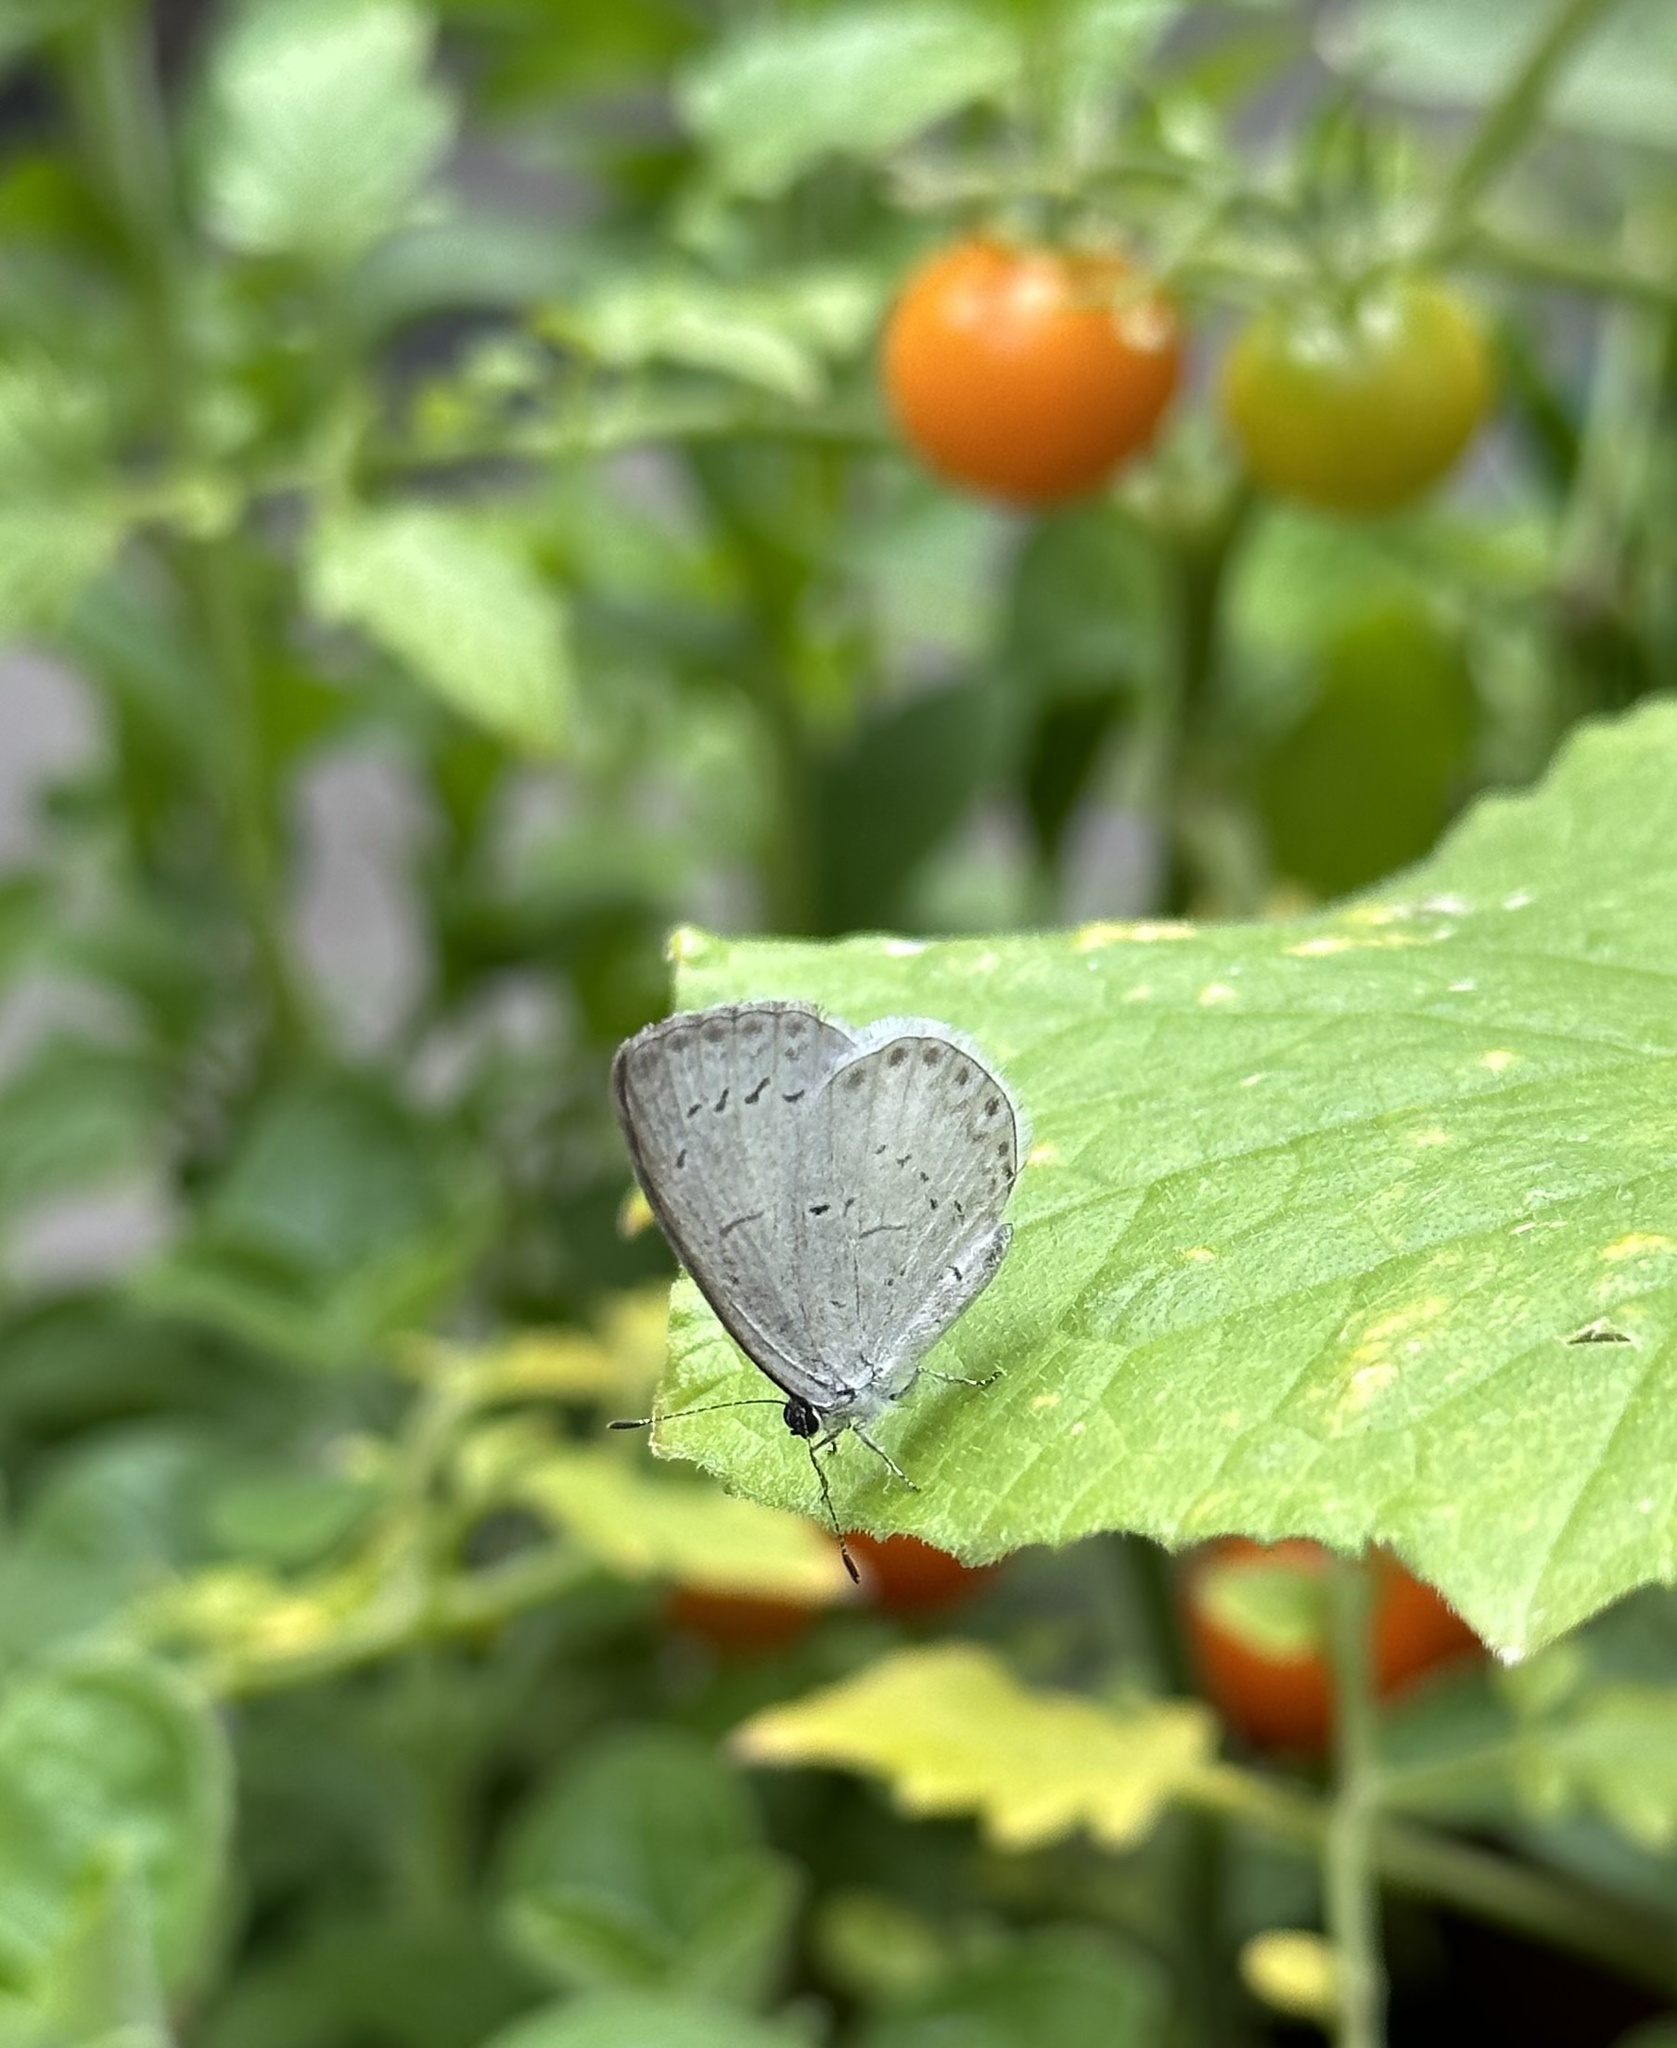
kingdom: Animalia
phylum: Arthropoda
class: Insecta
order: Lepidoptera
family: Lycaenidae
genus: Cyaniris
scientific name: Cyaniris neglecta
